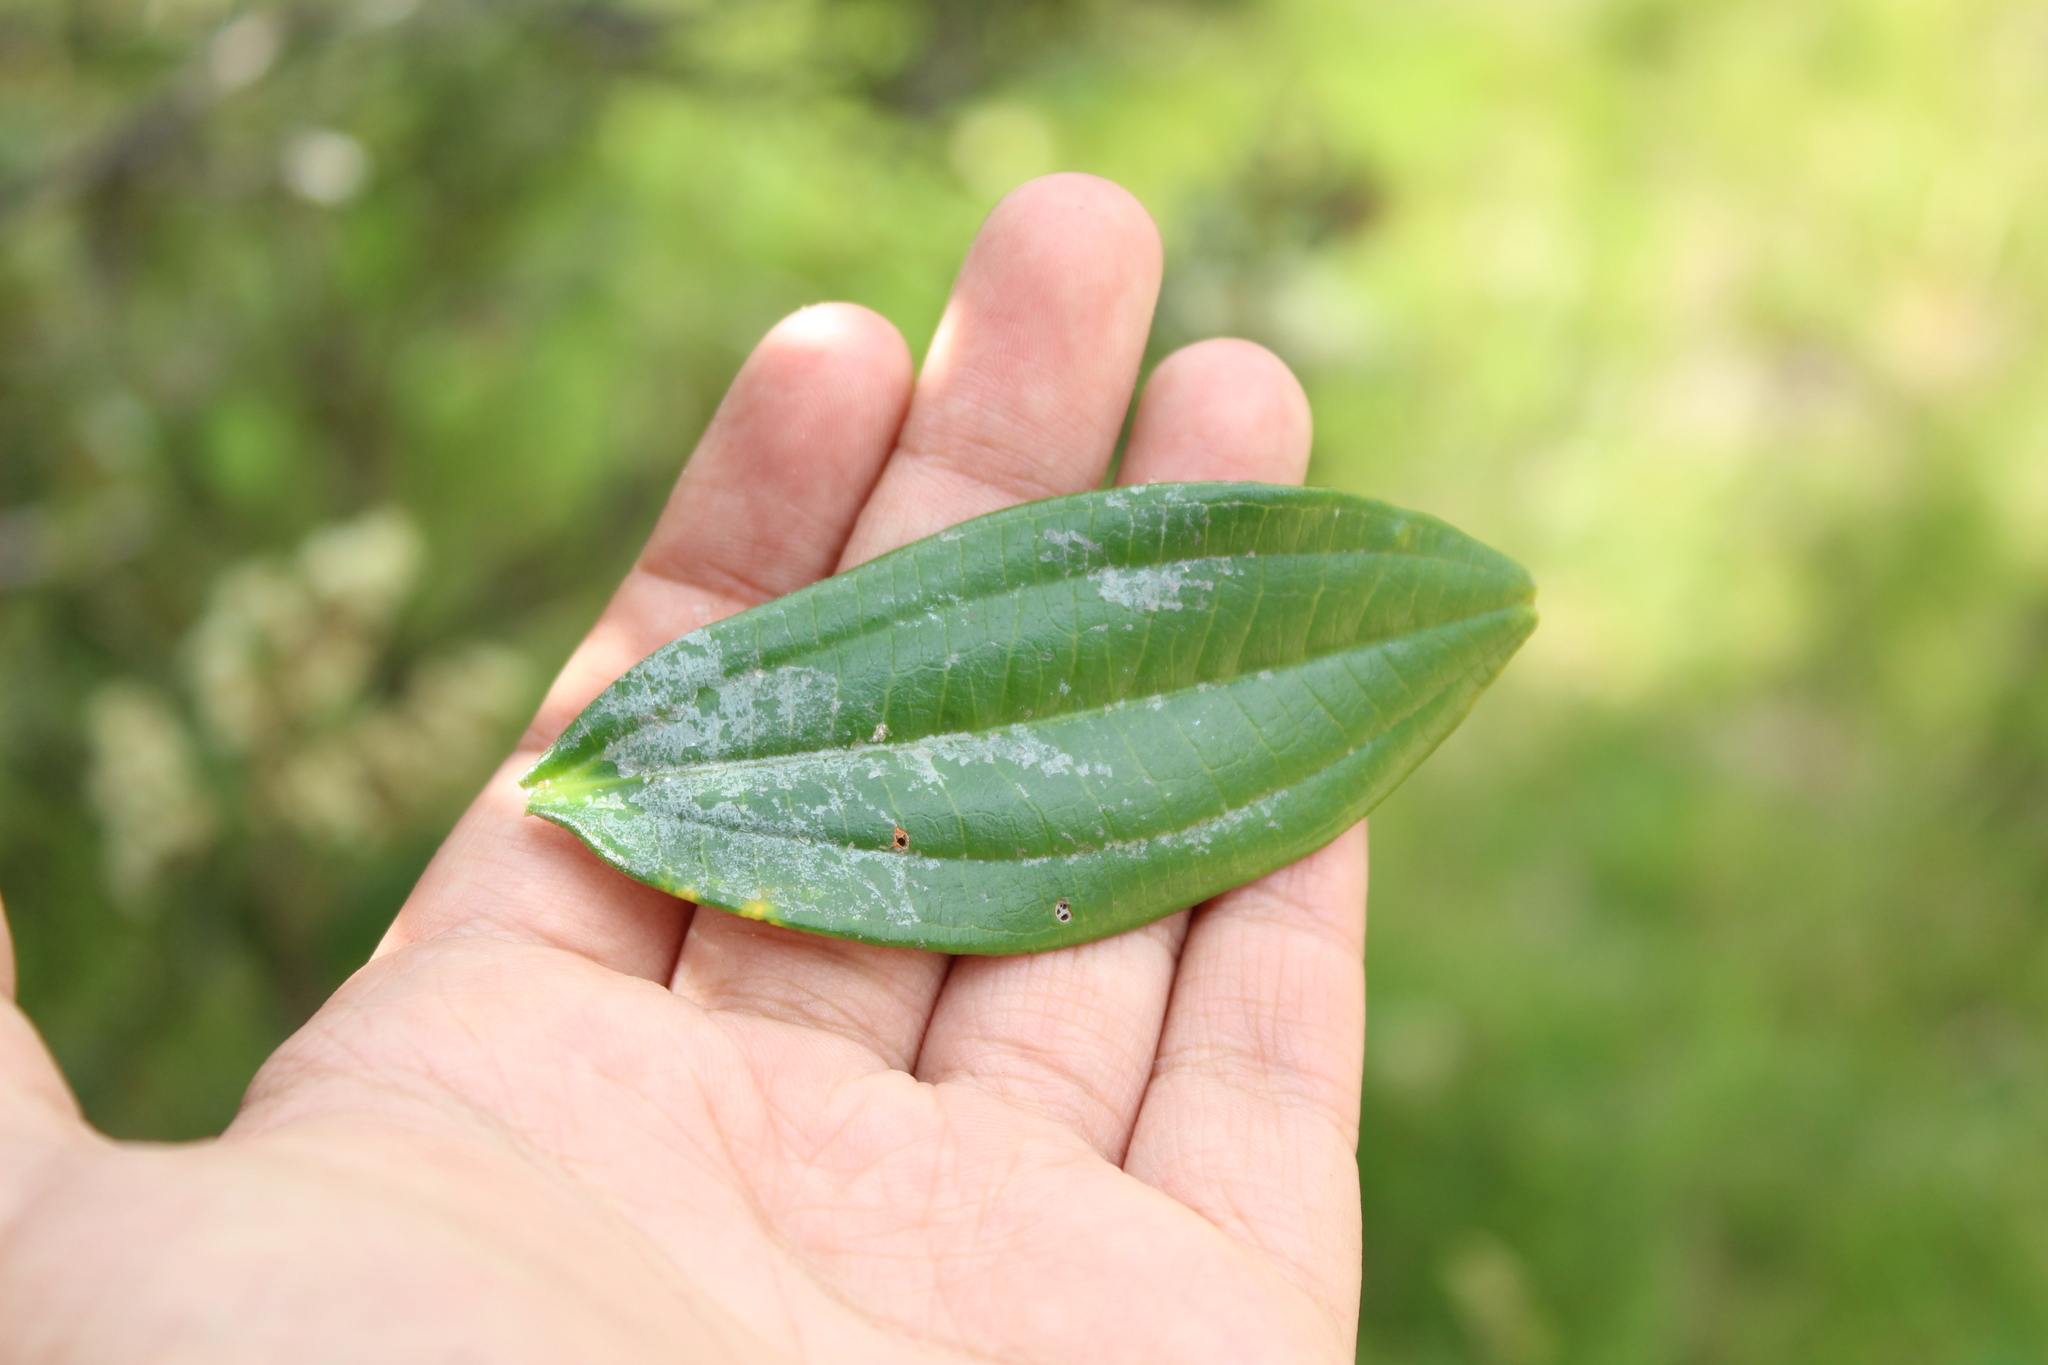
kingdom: Plantae
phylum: Tracheophyta
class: Magnoliopsida
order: Myrtales
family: Melastomataceae
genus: Miconia
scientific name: Miconia squamulosa
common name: Squamulose maya
